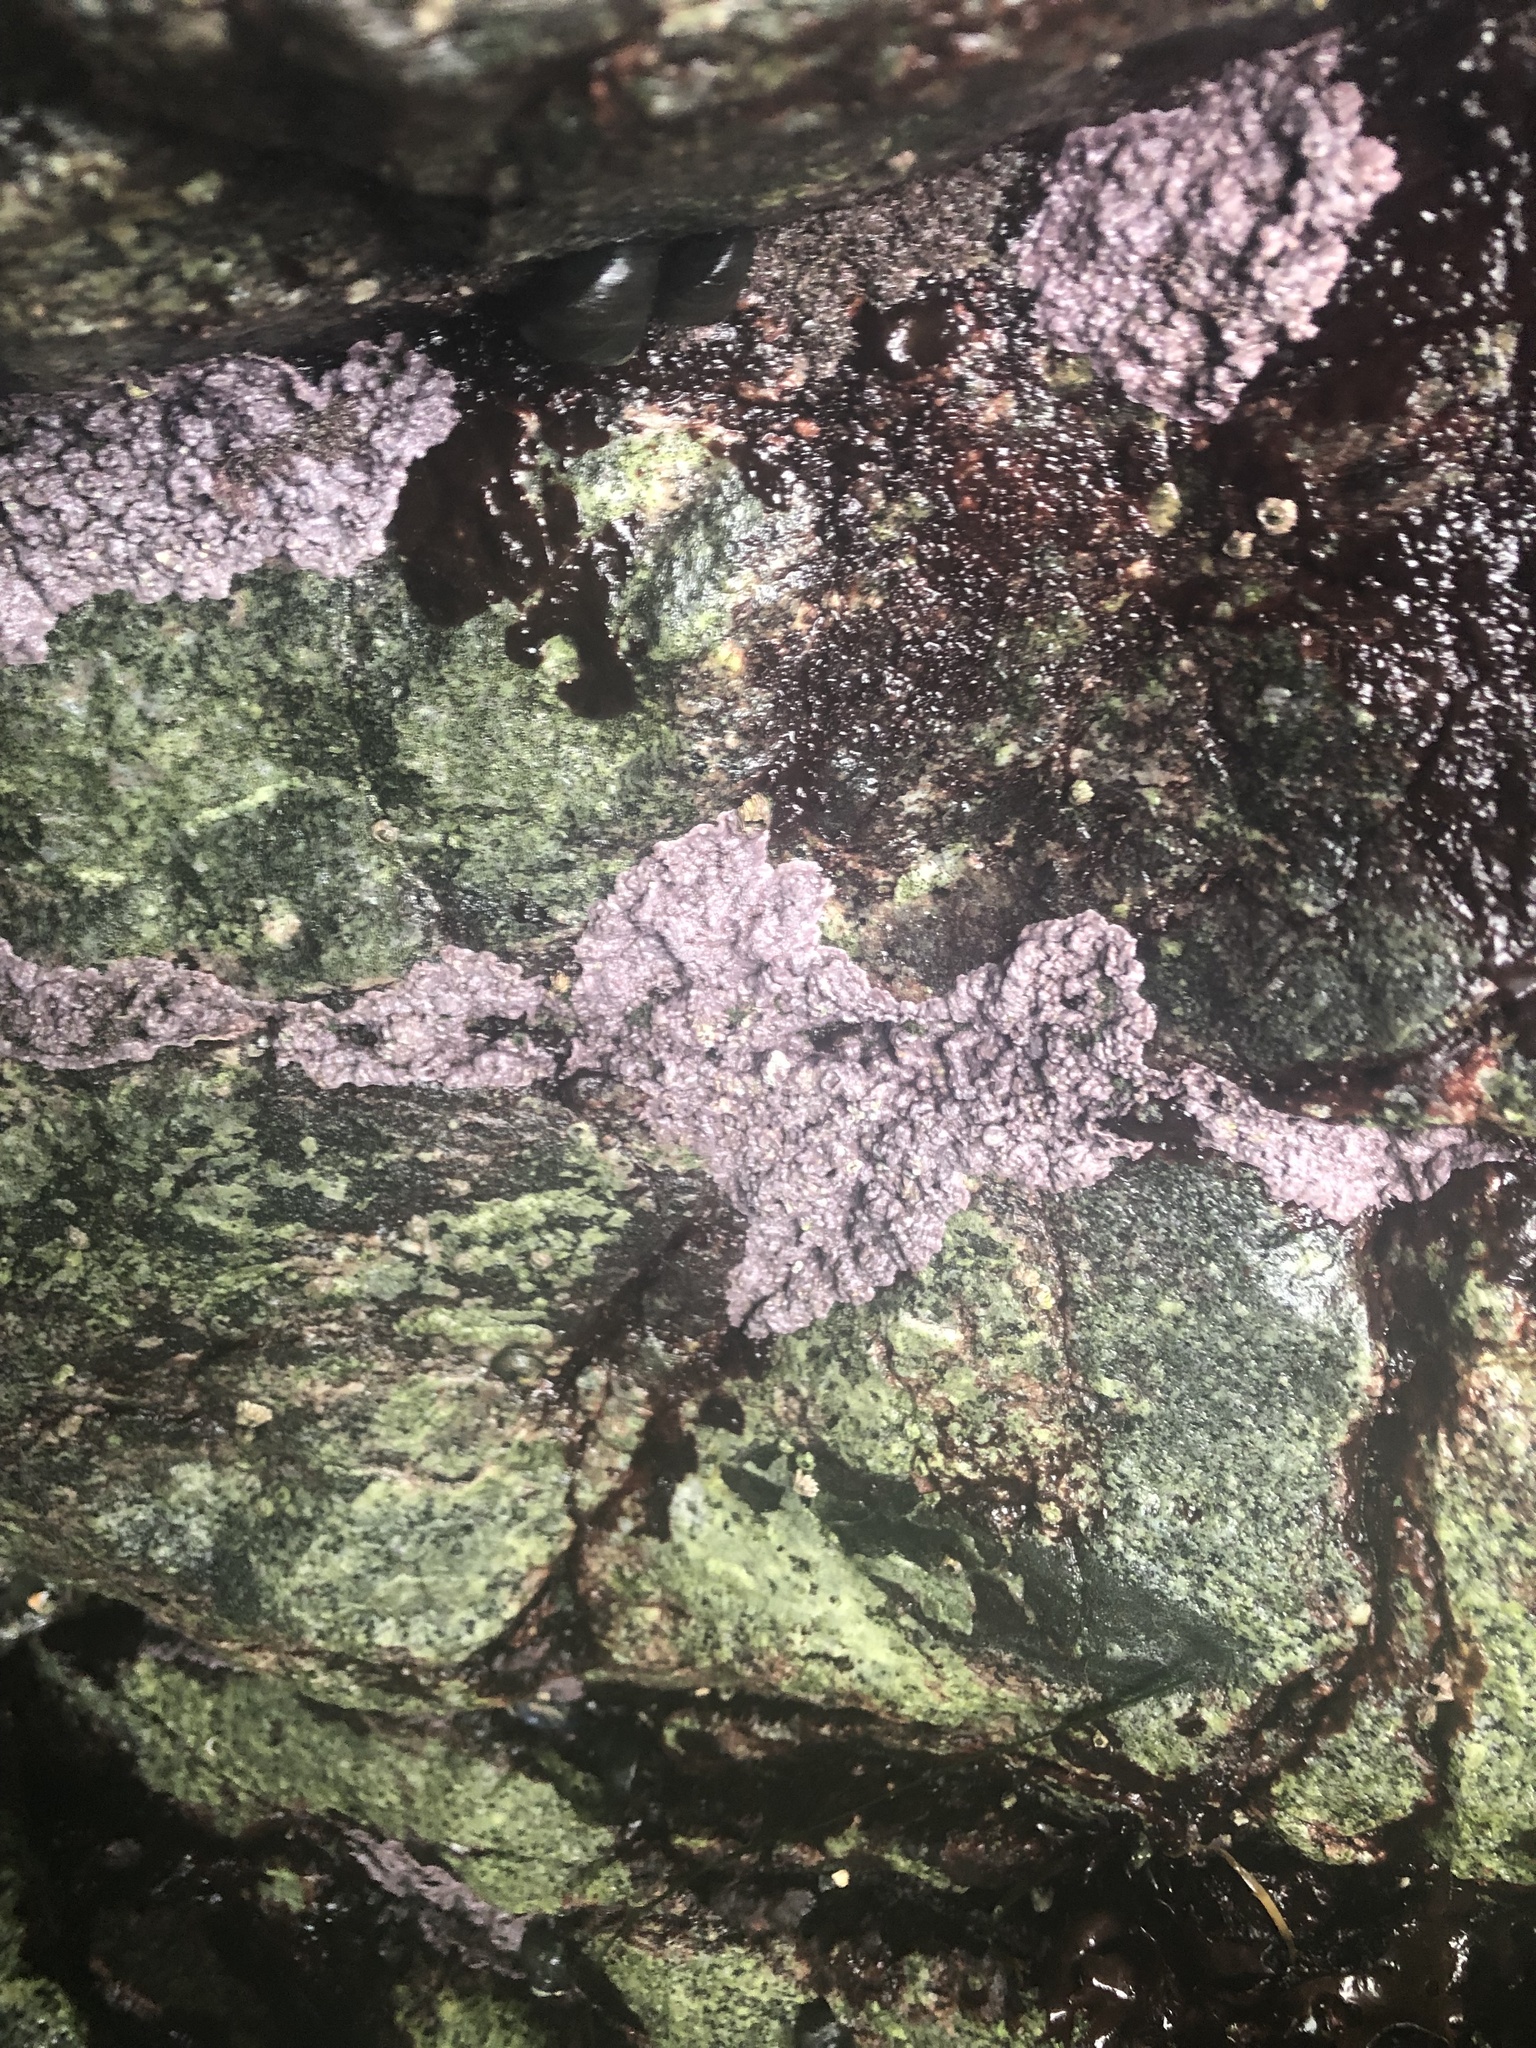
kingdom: Plantae
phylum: Rhodophyta
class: Florideophyceae
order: Corallinales
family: Corallinaceae
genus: Chamberlainium
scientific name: Chamberlainium tumidum
